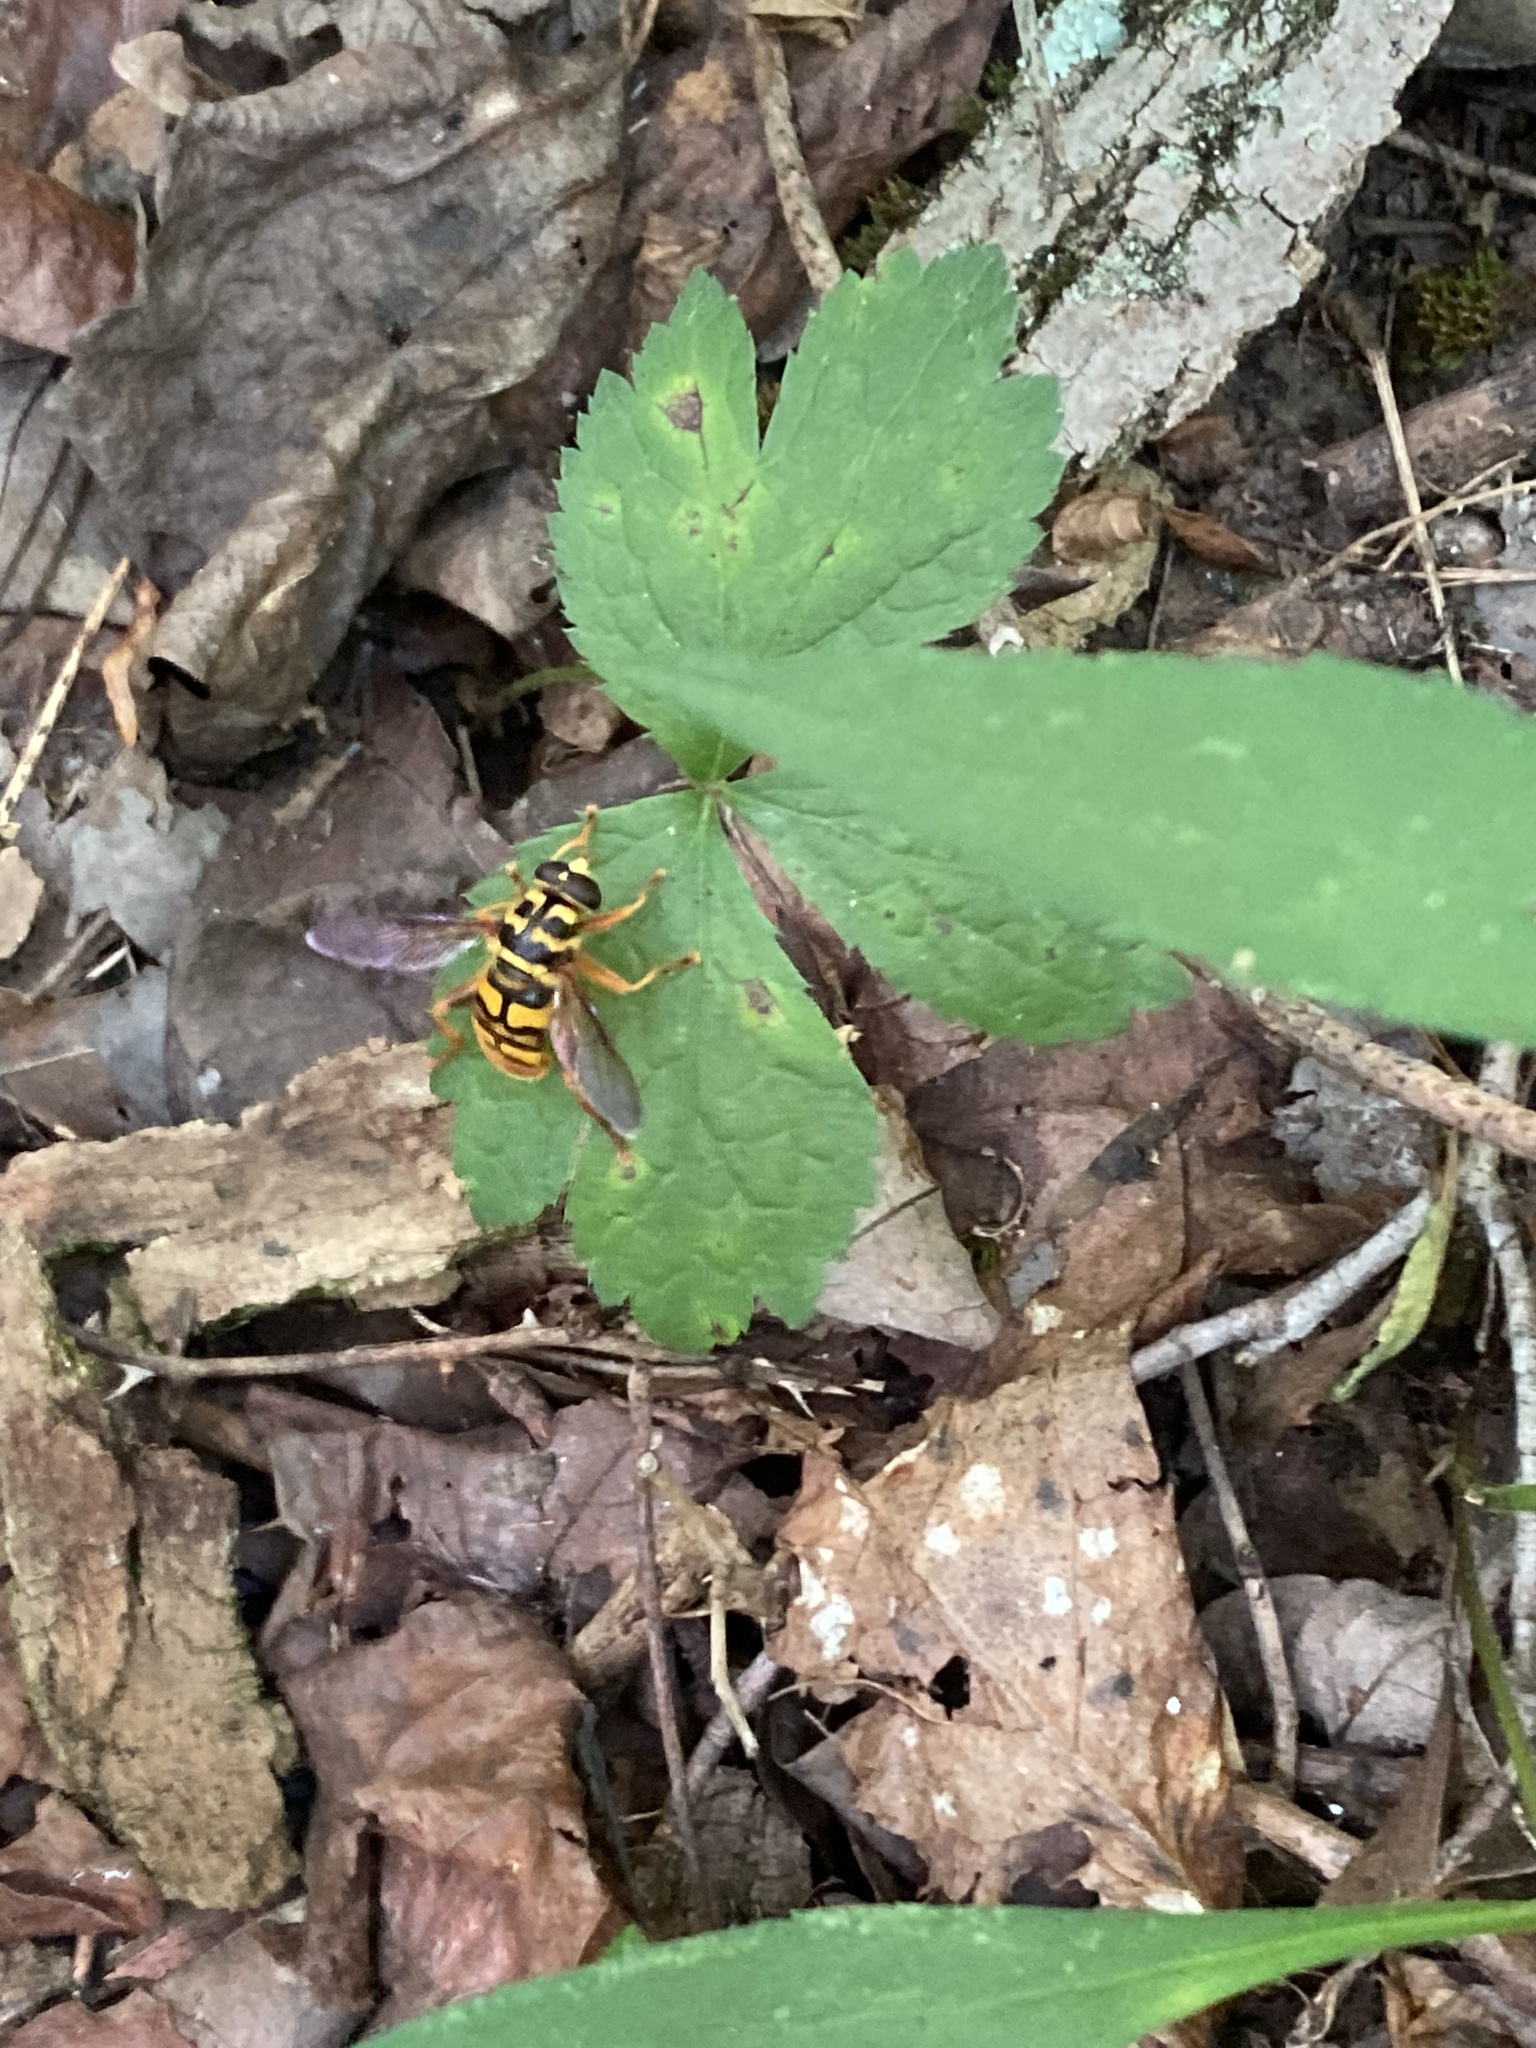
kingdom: Animalia
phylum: Arthropoda
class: Insecta
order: Diptera
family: Syrphidae
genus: Milesia
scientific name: Milesia virginiensis
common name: Virginia giant
